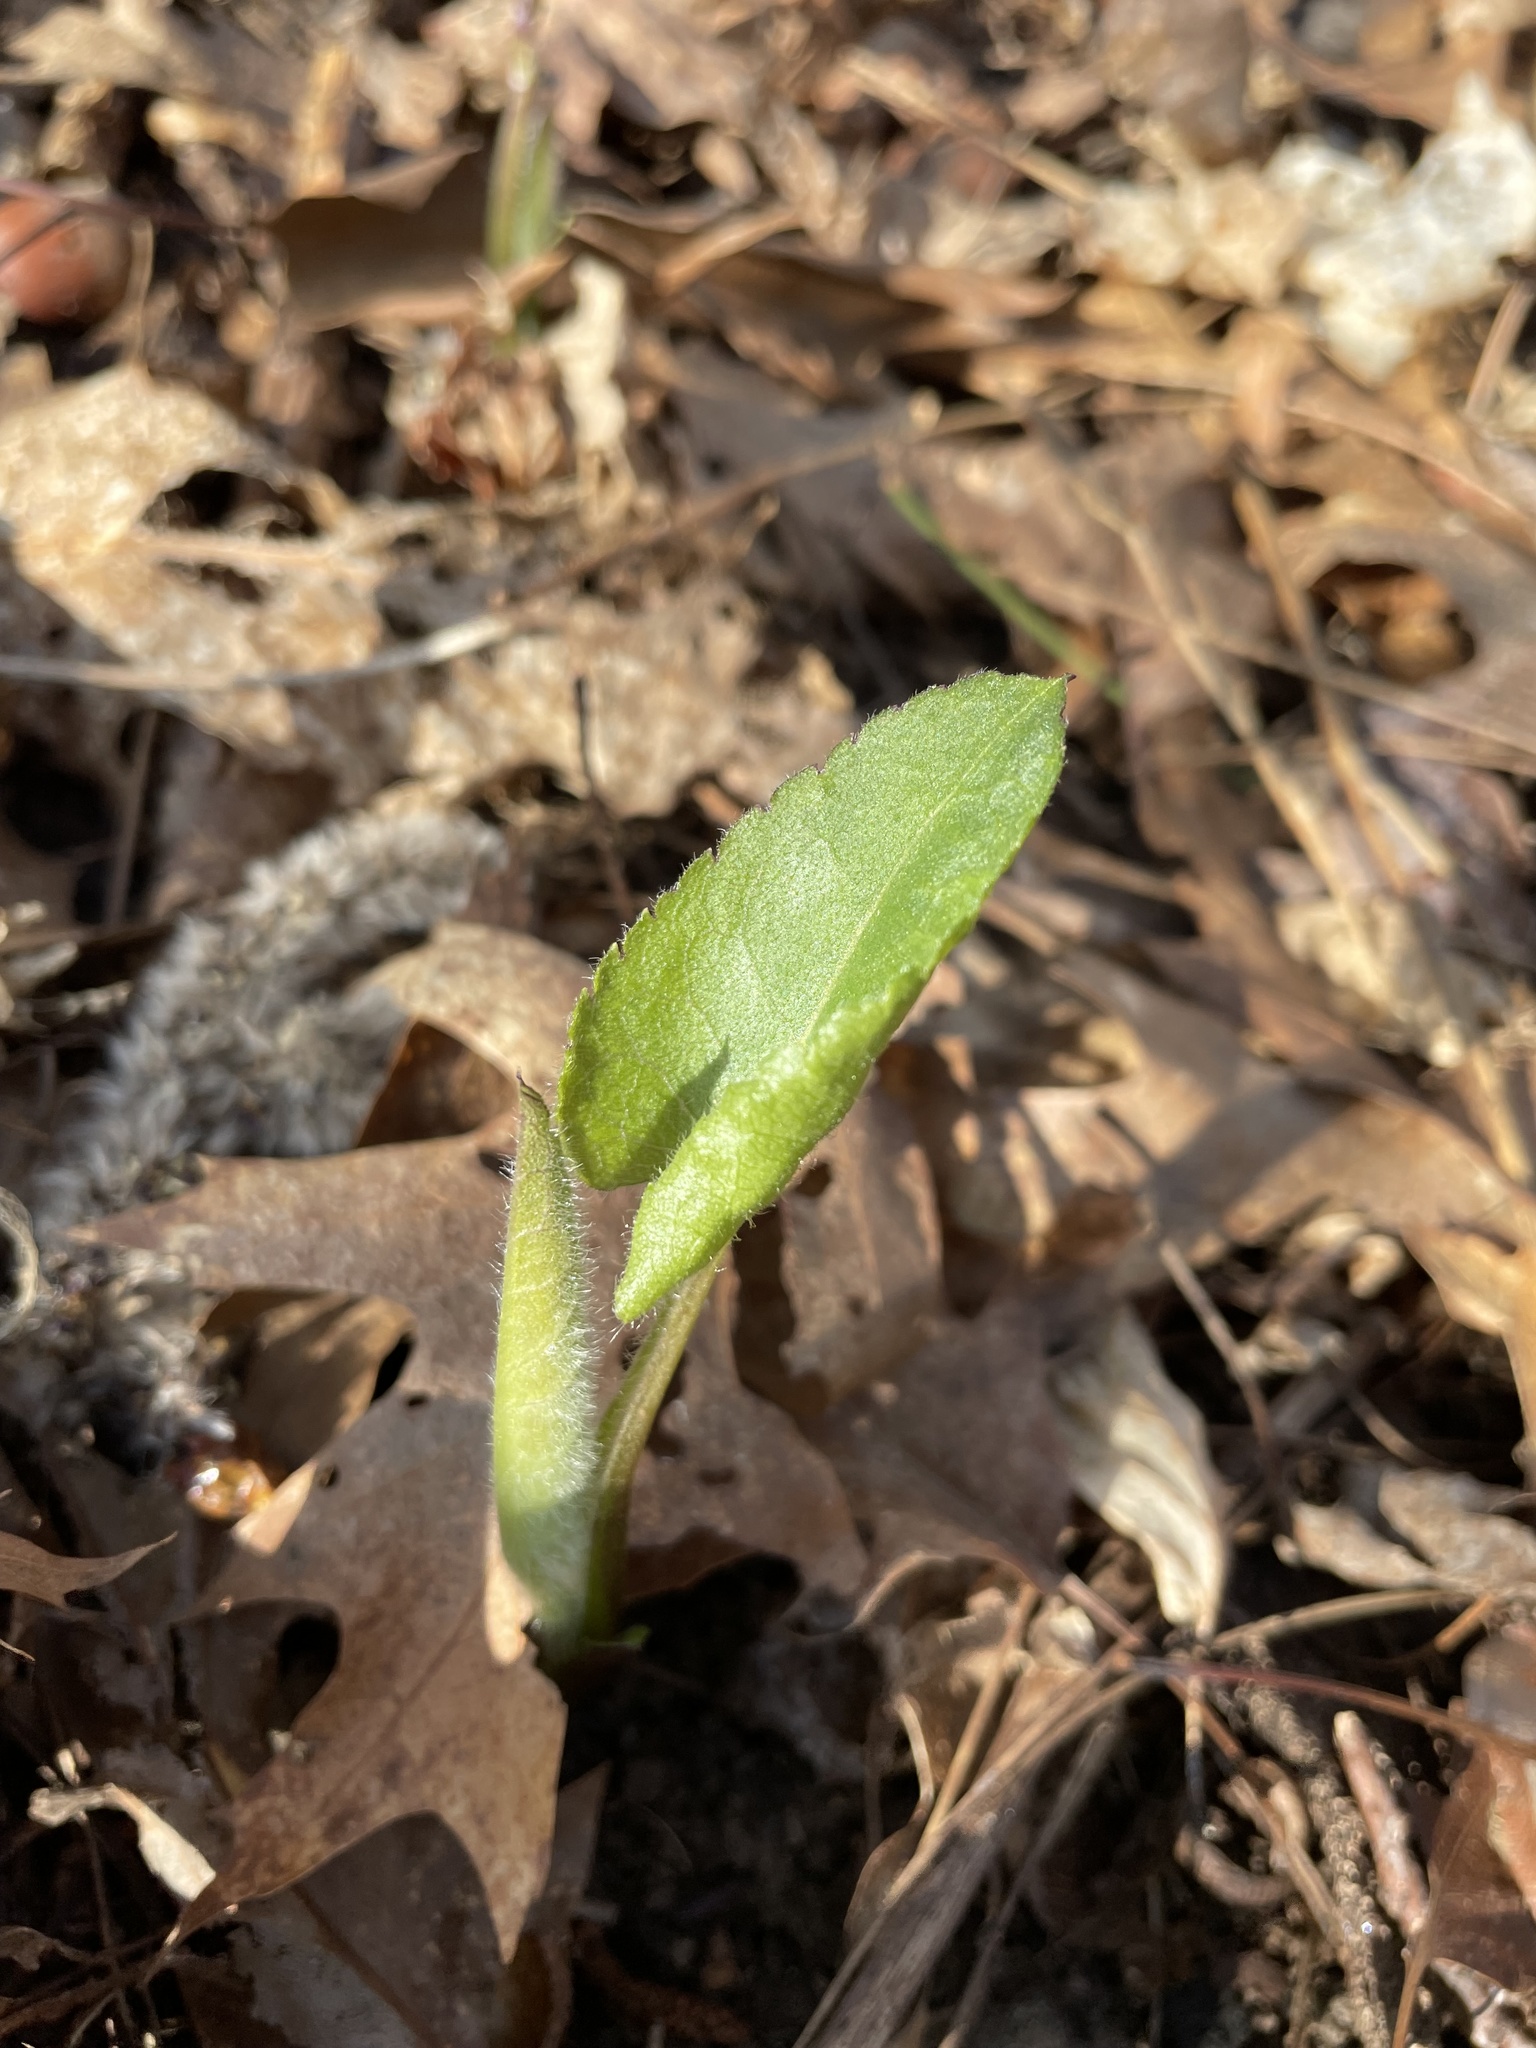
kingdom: Plantae
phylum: Tracheophyta
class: Magnoliopsida
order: Asterales
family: Asteraceae
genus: Eurybia
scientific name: Eurybia macrophylla
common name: Big-leaved aster
